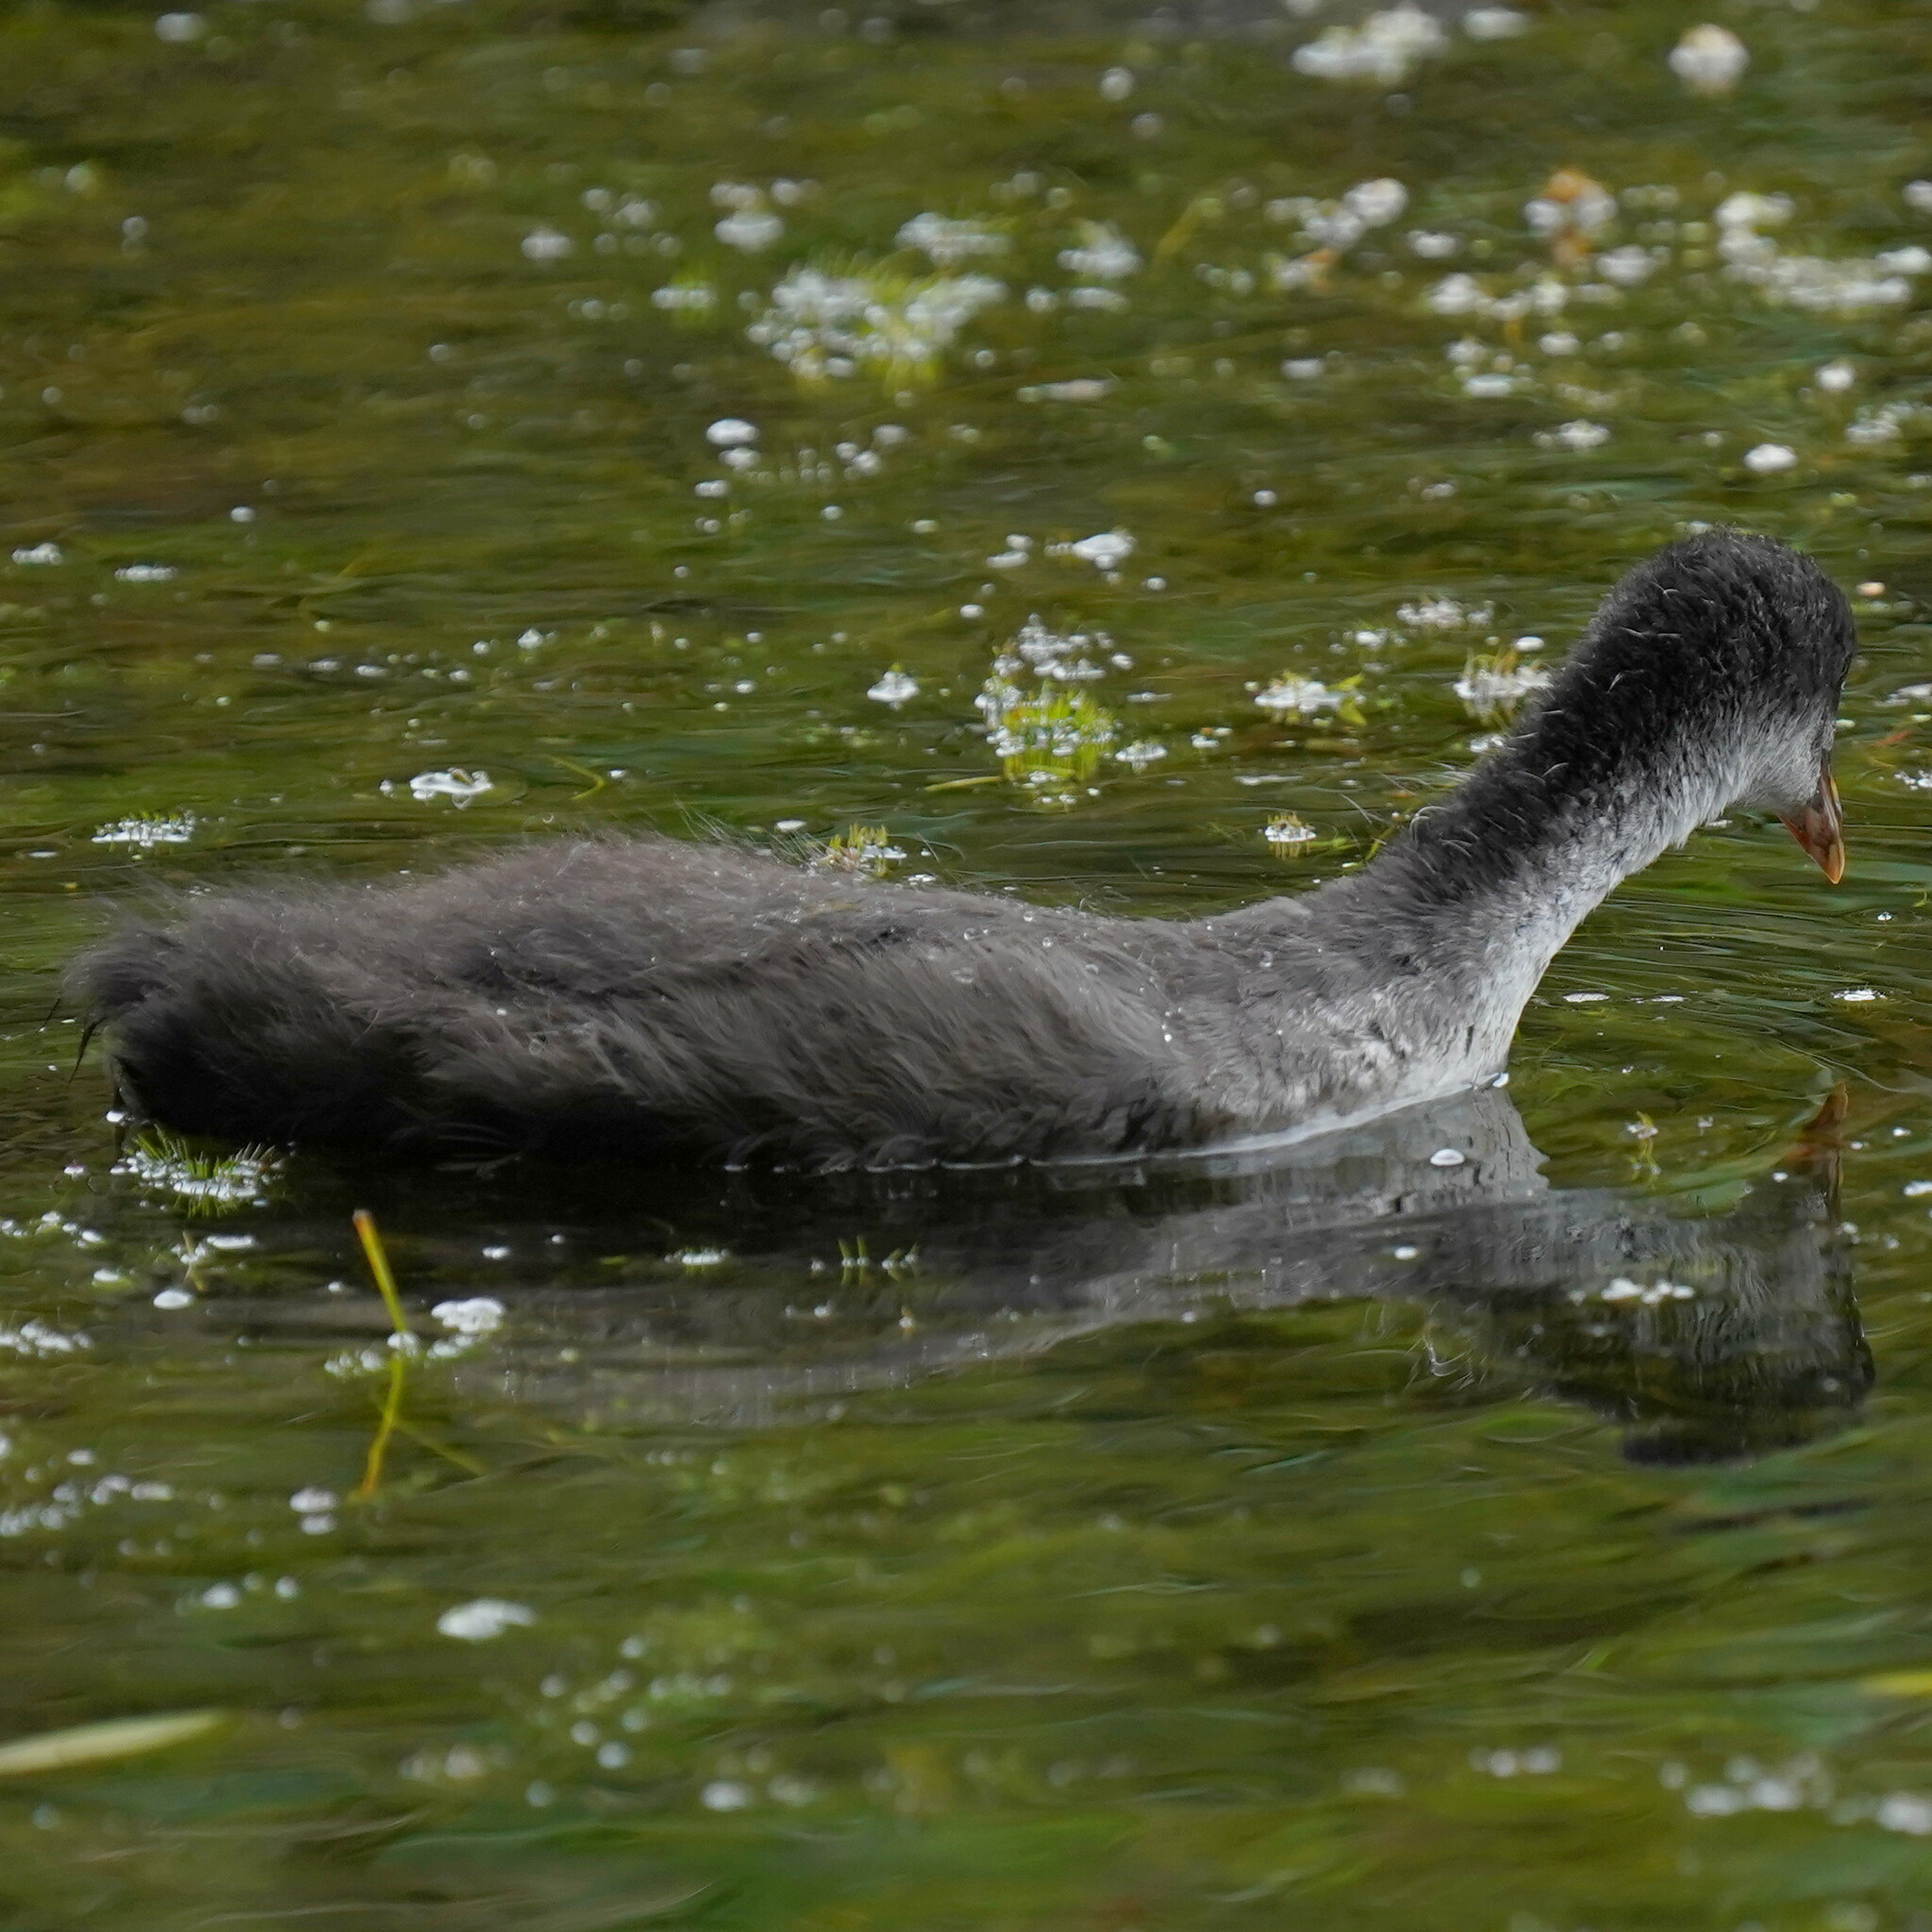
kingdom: Animalia
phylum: Chordata
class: Aves
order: Gruiformes
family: Rallidae
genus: Fulica
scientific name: Fulica atra
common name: Eurasian coot
